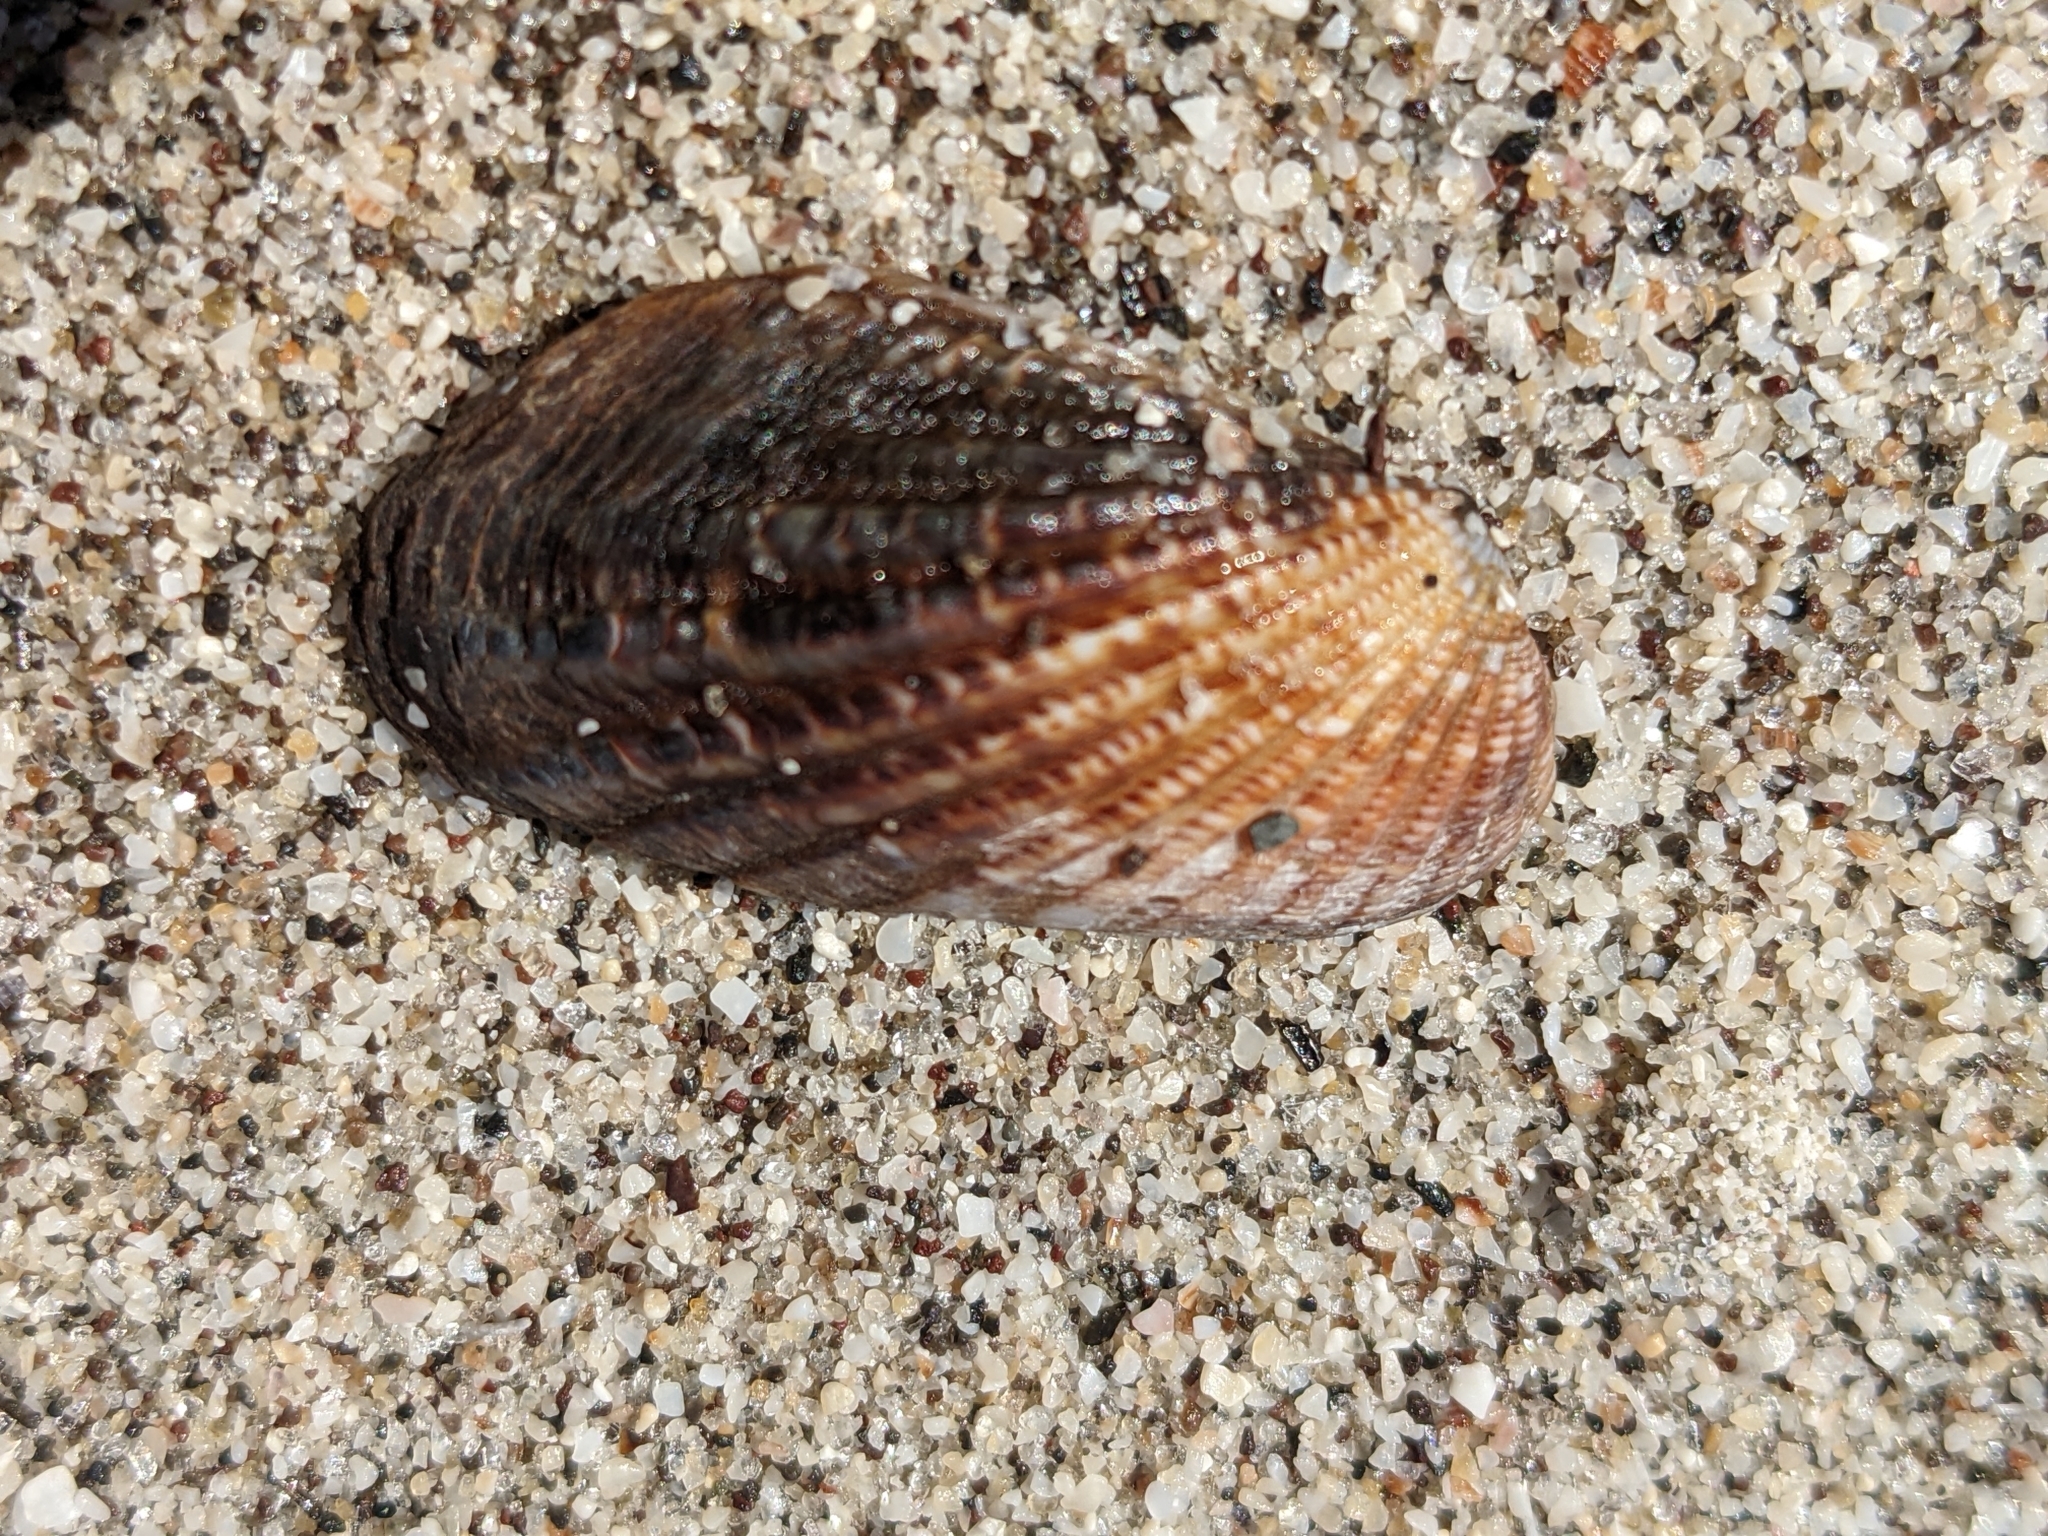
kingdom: Animalia
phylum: Mollusca
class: Bivalvia
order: Carditida
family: Carditidae
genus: Carditamera
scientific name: Carditamera affinis
